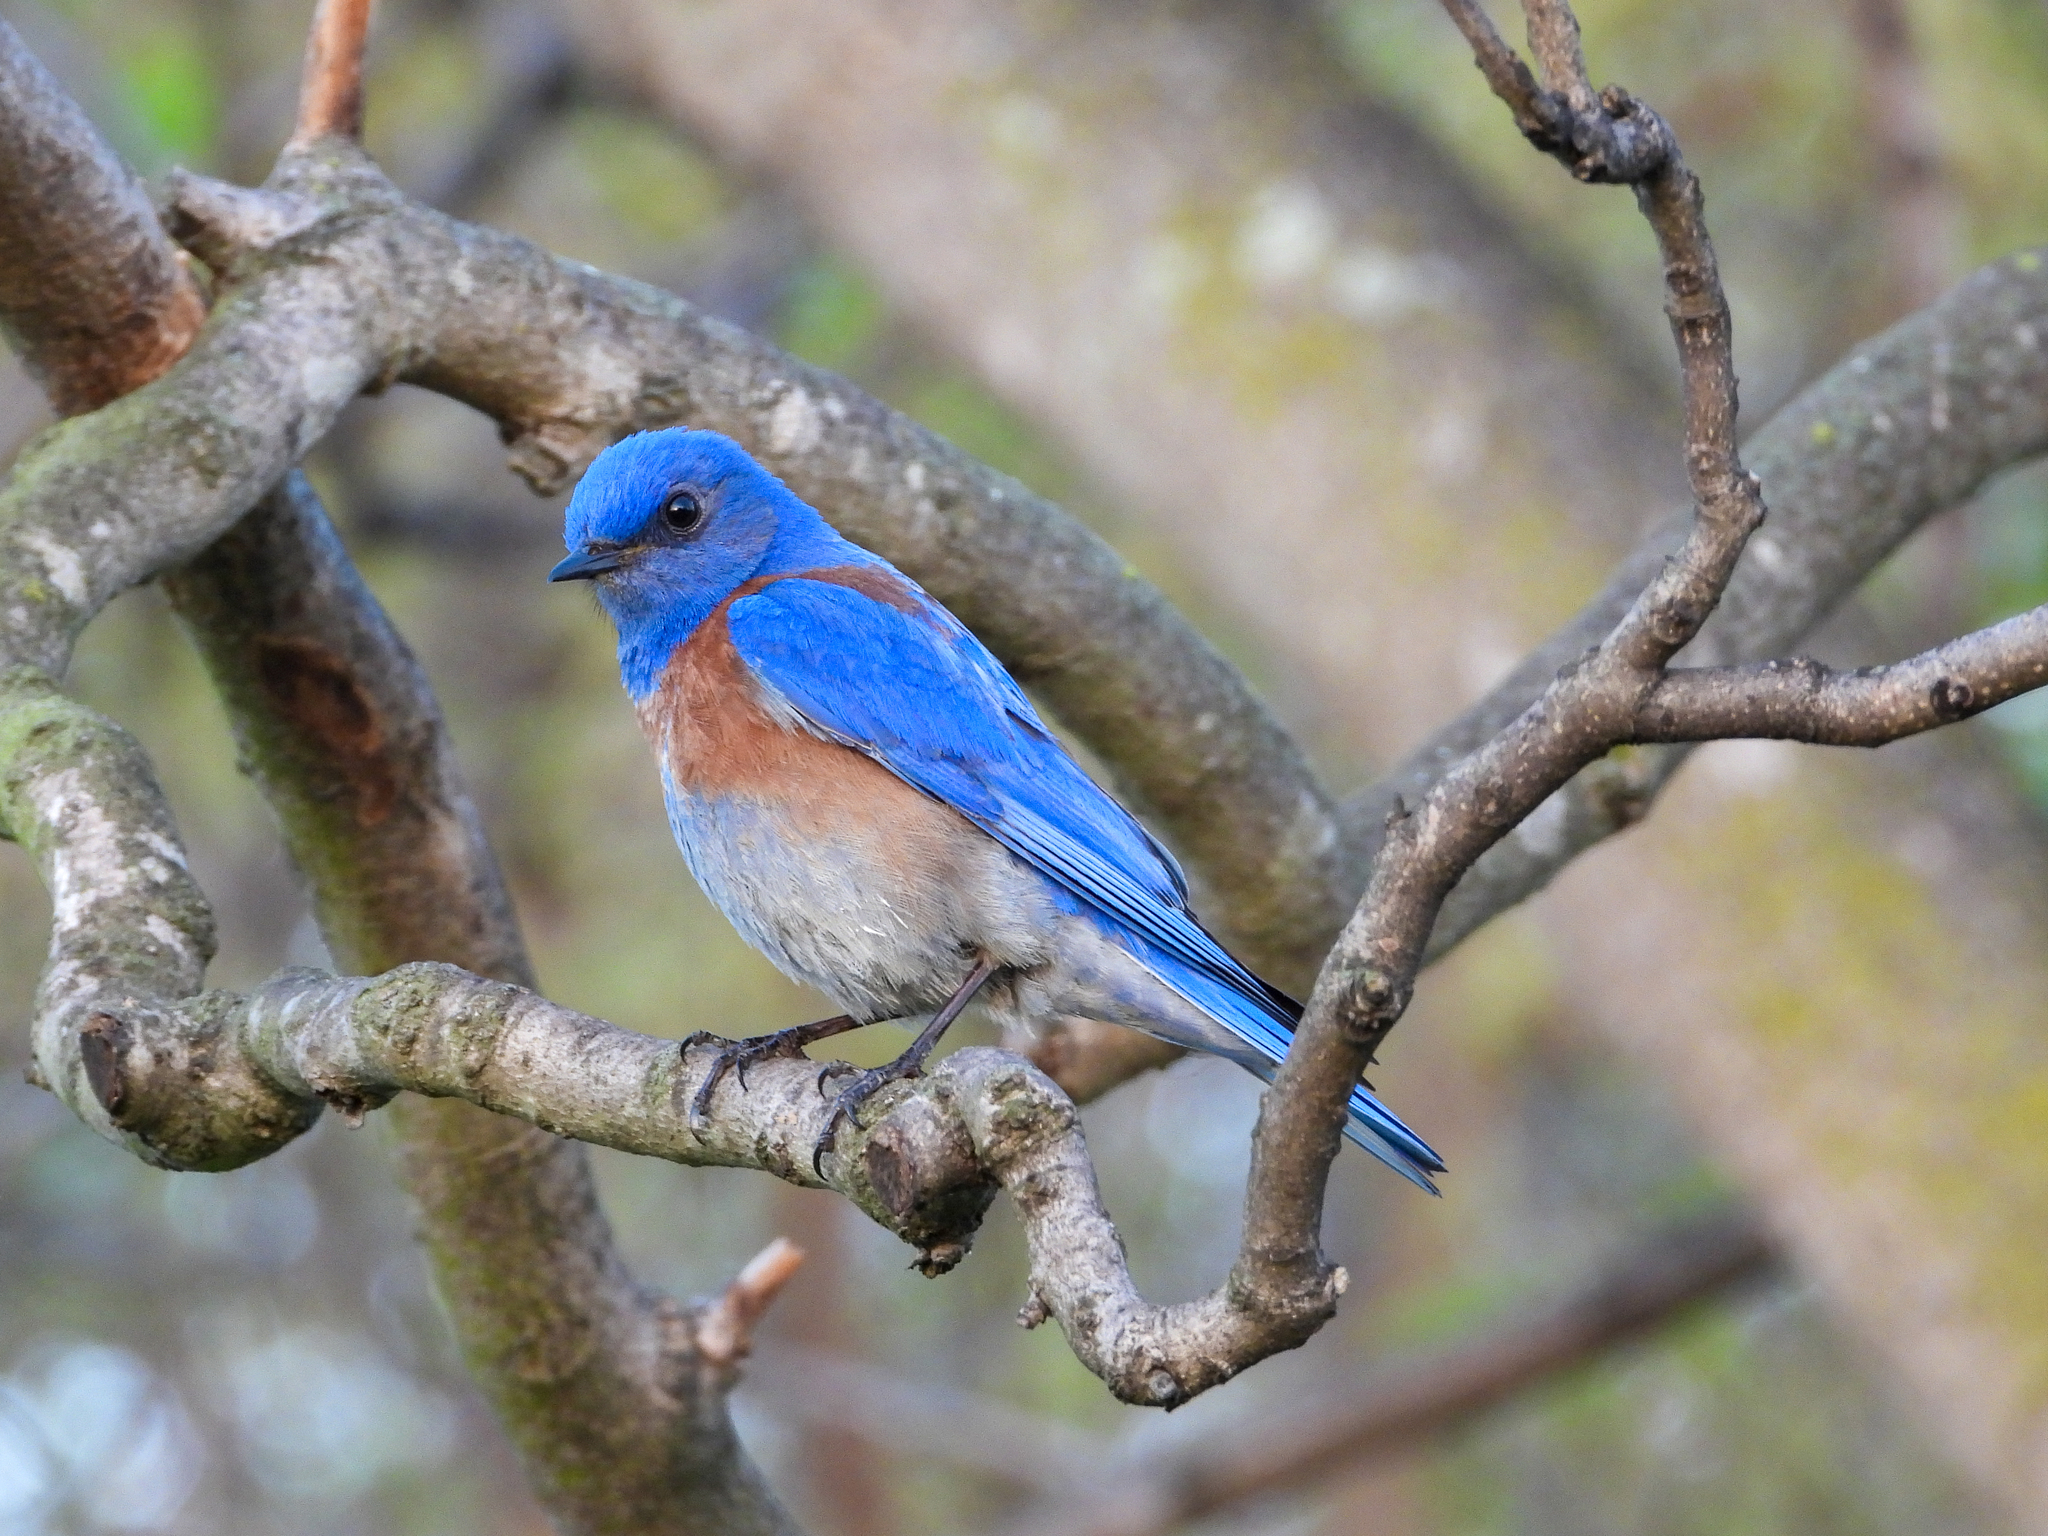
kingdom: Animalia
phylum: Chordata
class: Aves
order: Passeriformes
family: Turdidae
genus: Sialia
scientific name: Sialia mexicana
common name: Western bluebird
